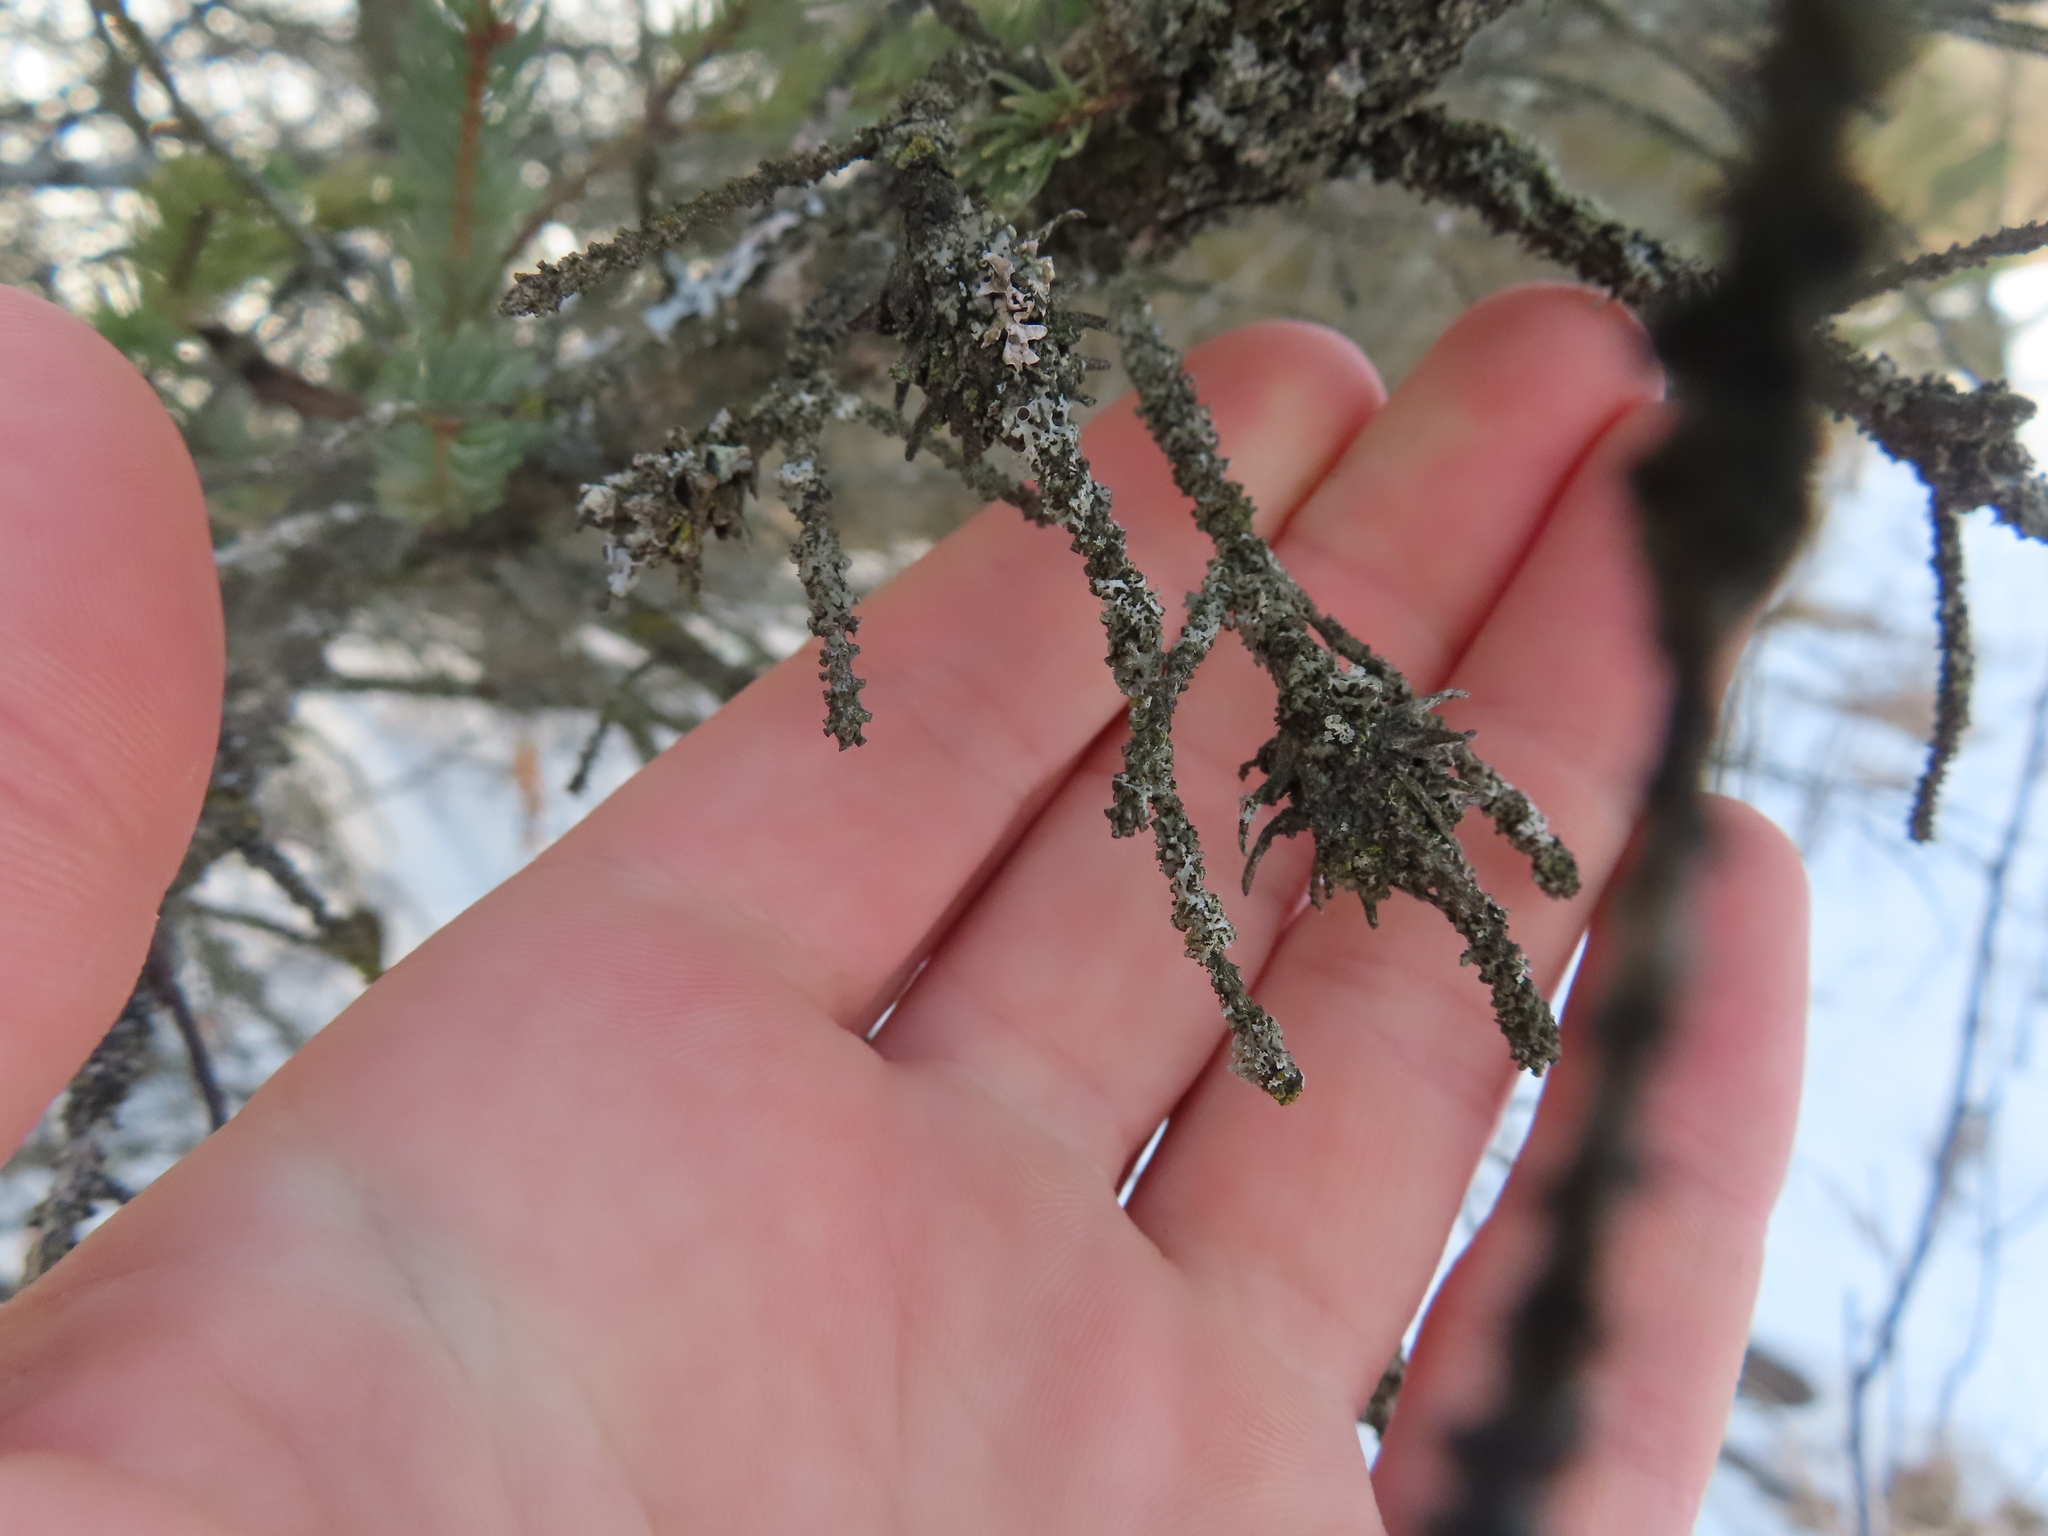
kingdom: Animalia
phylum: Arthropoda
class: Insecta
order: Hemiptera
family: Adelgidae
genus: Adelges
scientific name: Adelges abietis
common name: Eastern spruce gall adelgid
